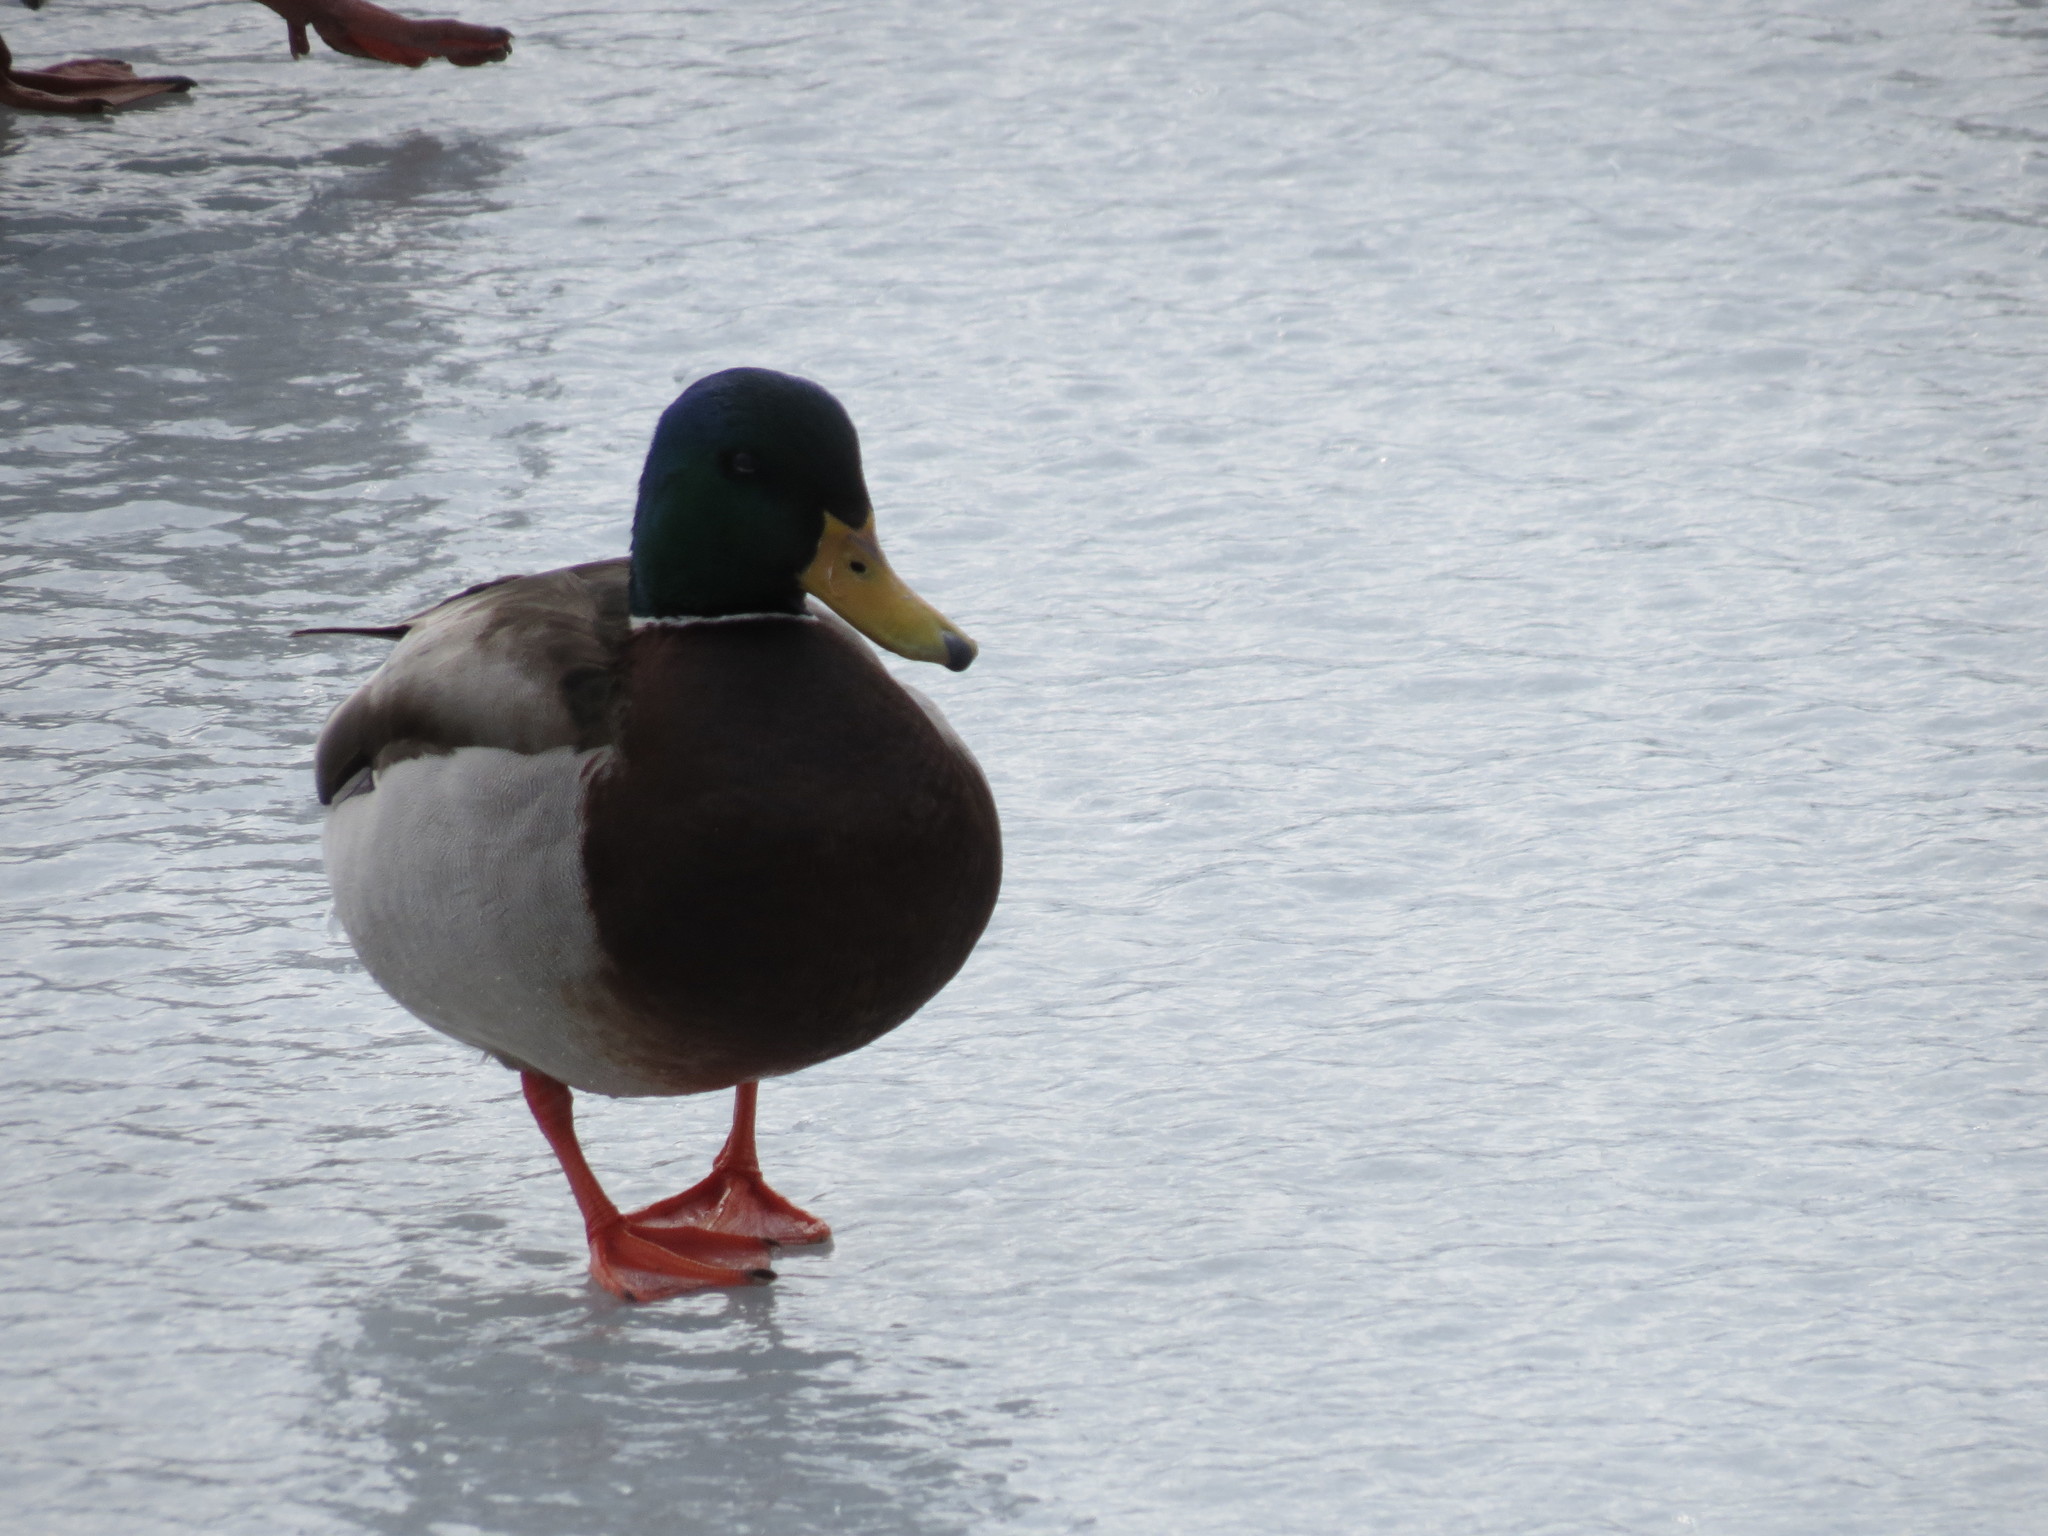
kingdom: Animalia
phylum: Chordata
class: Aves
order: Anseriformes
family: Anatidae
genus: Anas
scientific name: Anas platyrhynchos
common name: Mallard
